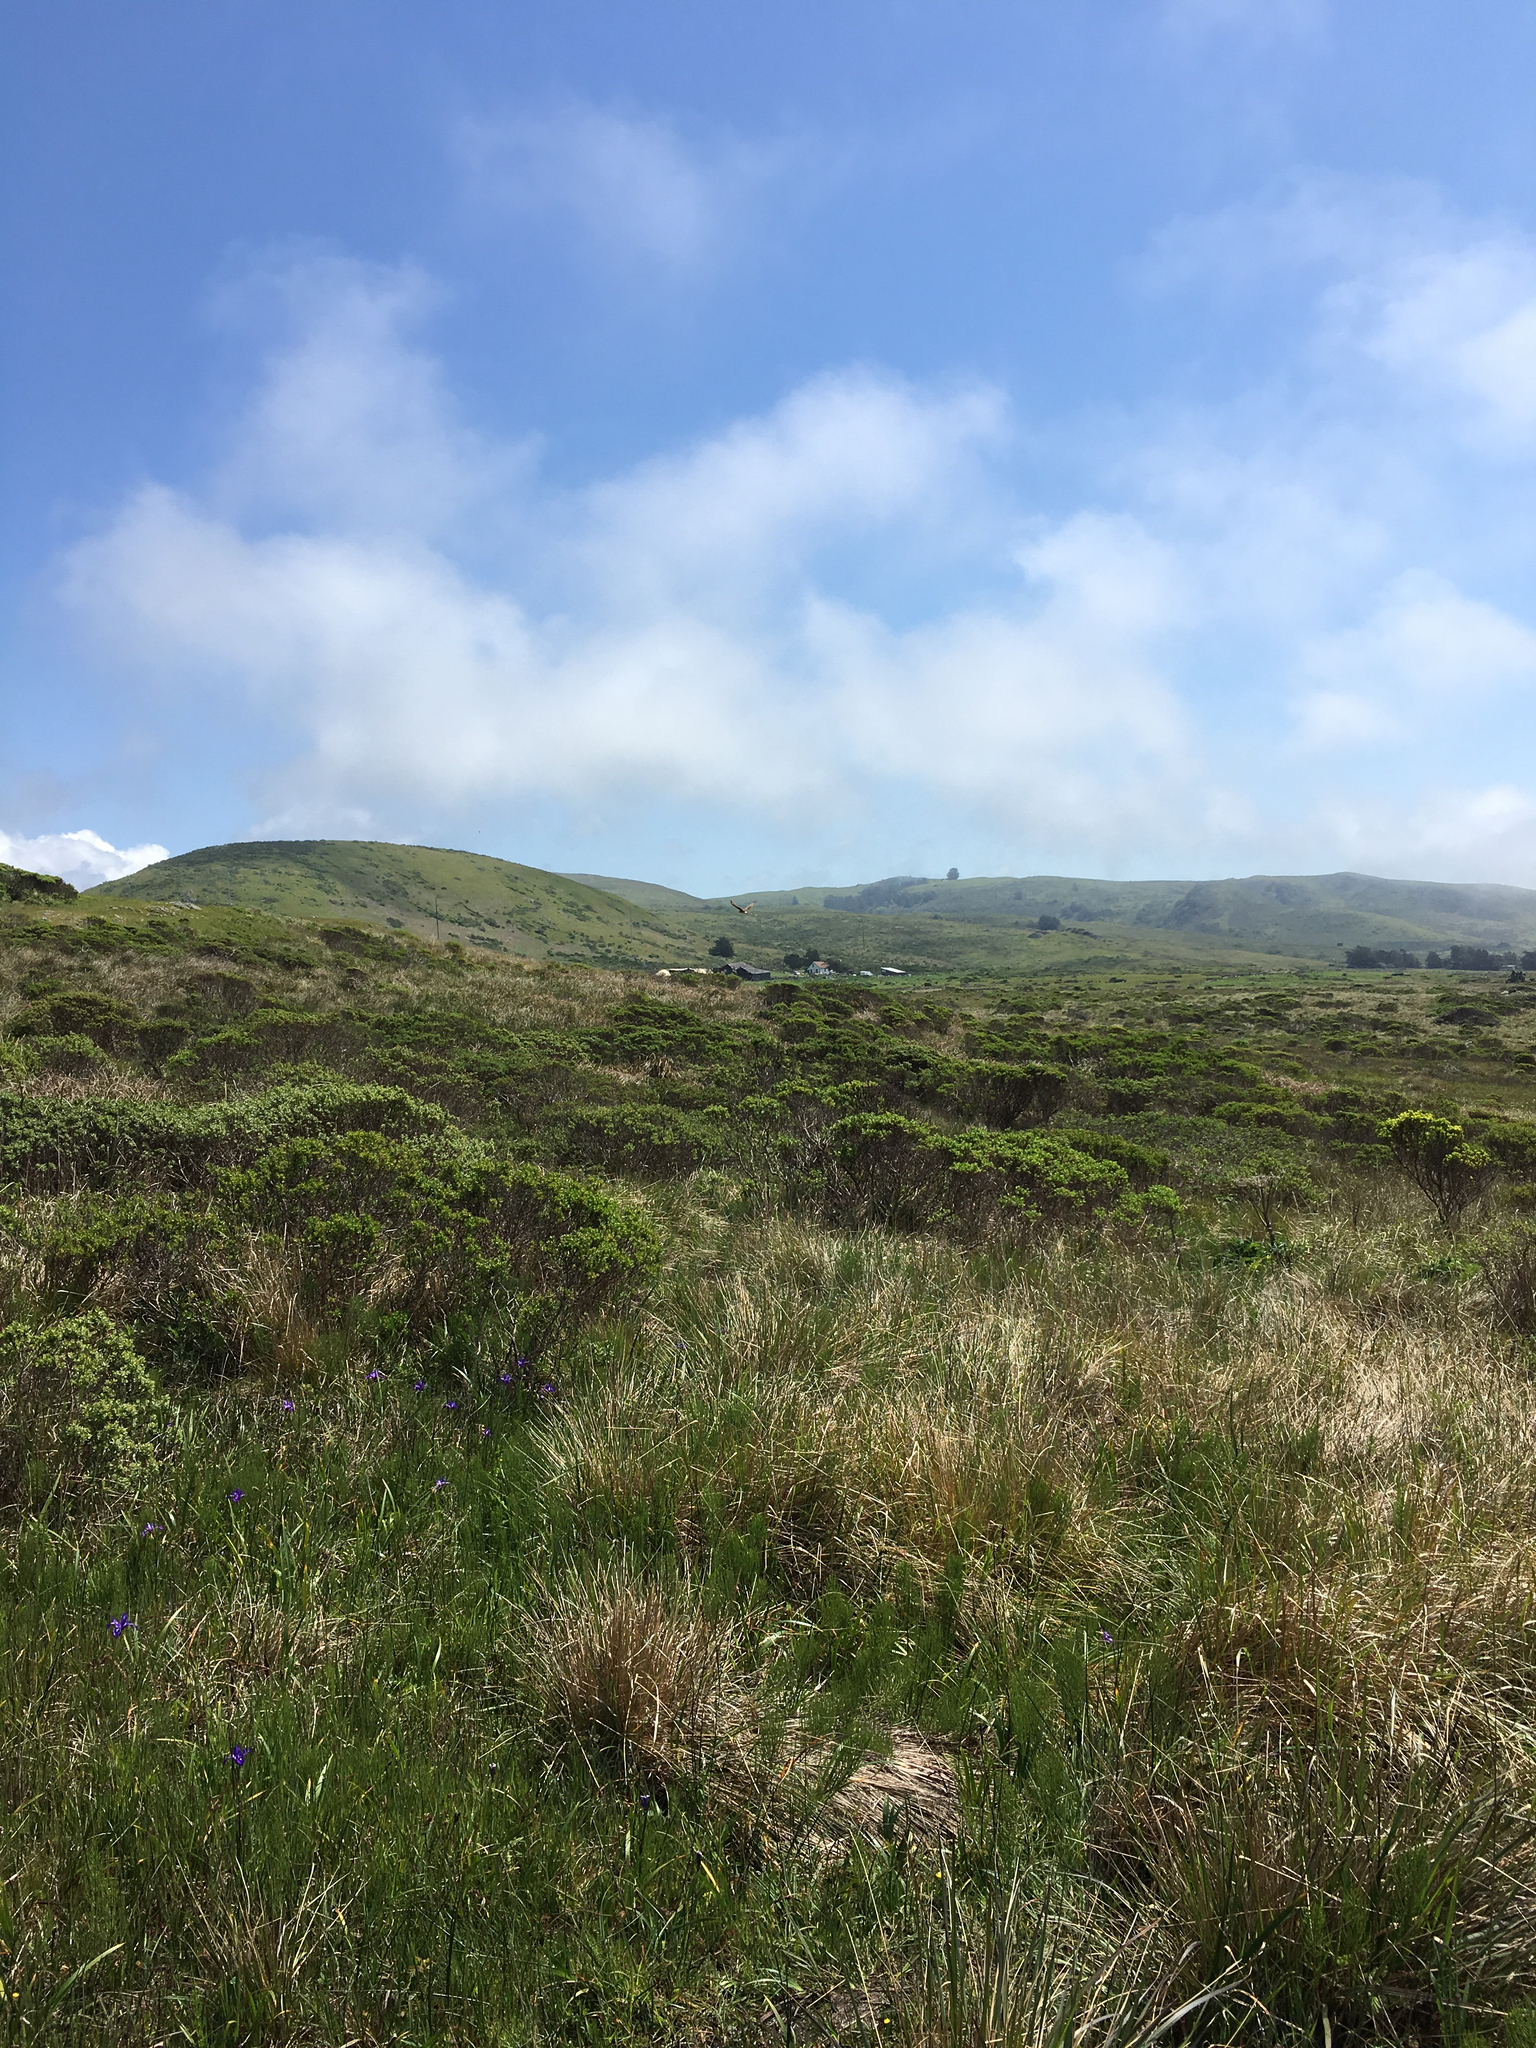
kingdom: Animalia
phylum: Chordata
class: Aves
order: Accipitriformes
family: Accipitridae
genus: Circus
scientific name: Circus cyaneus
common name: Hen harrier
